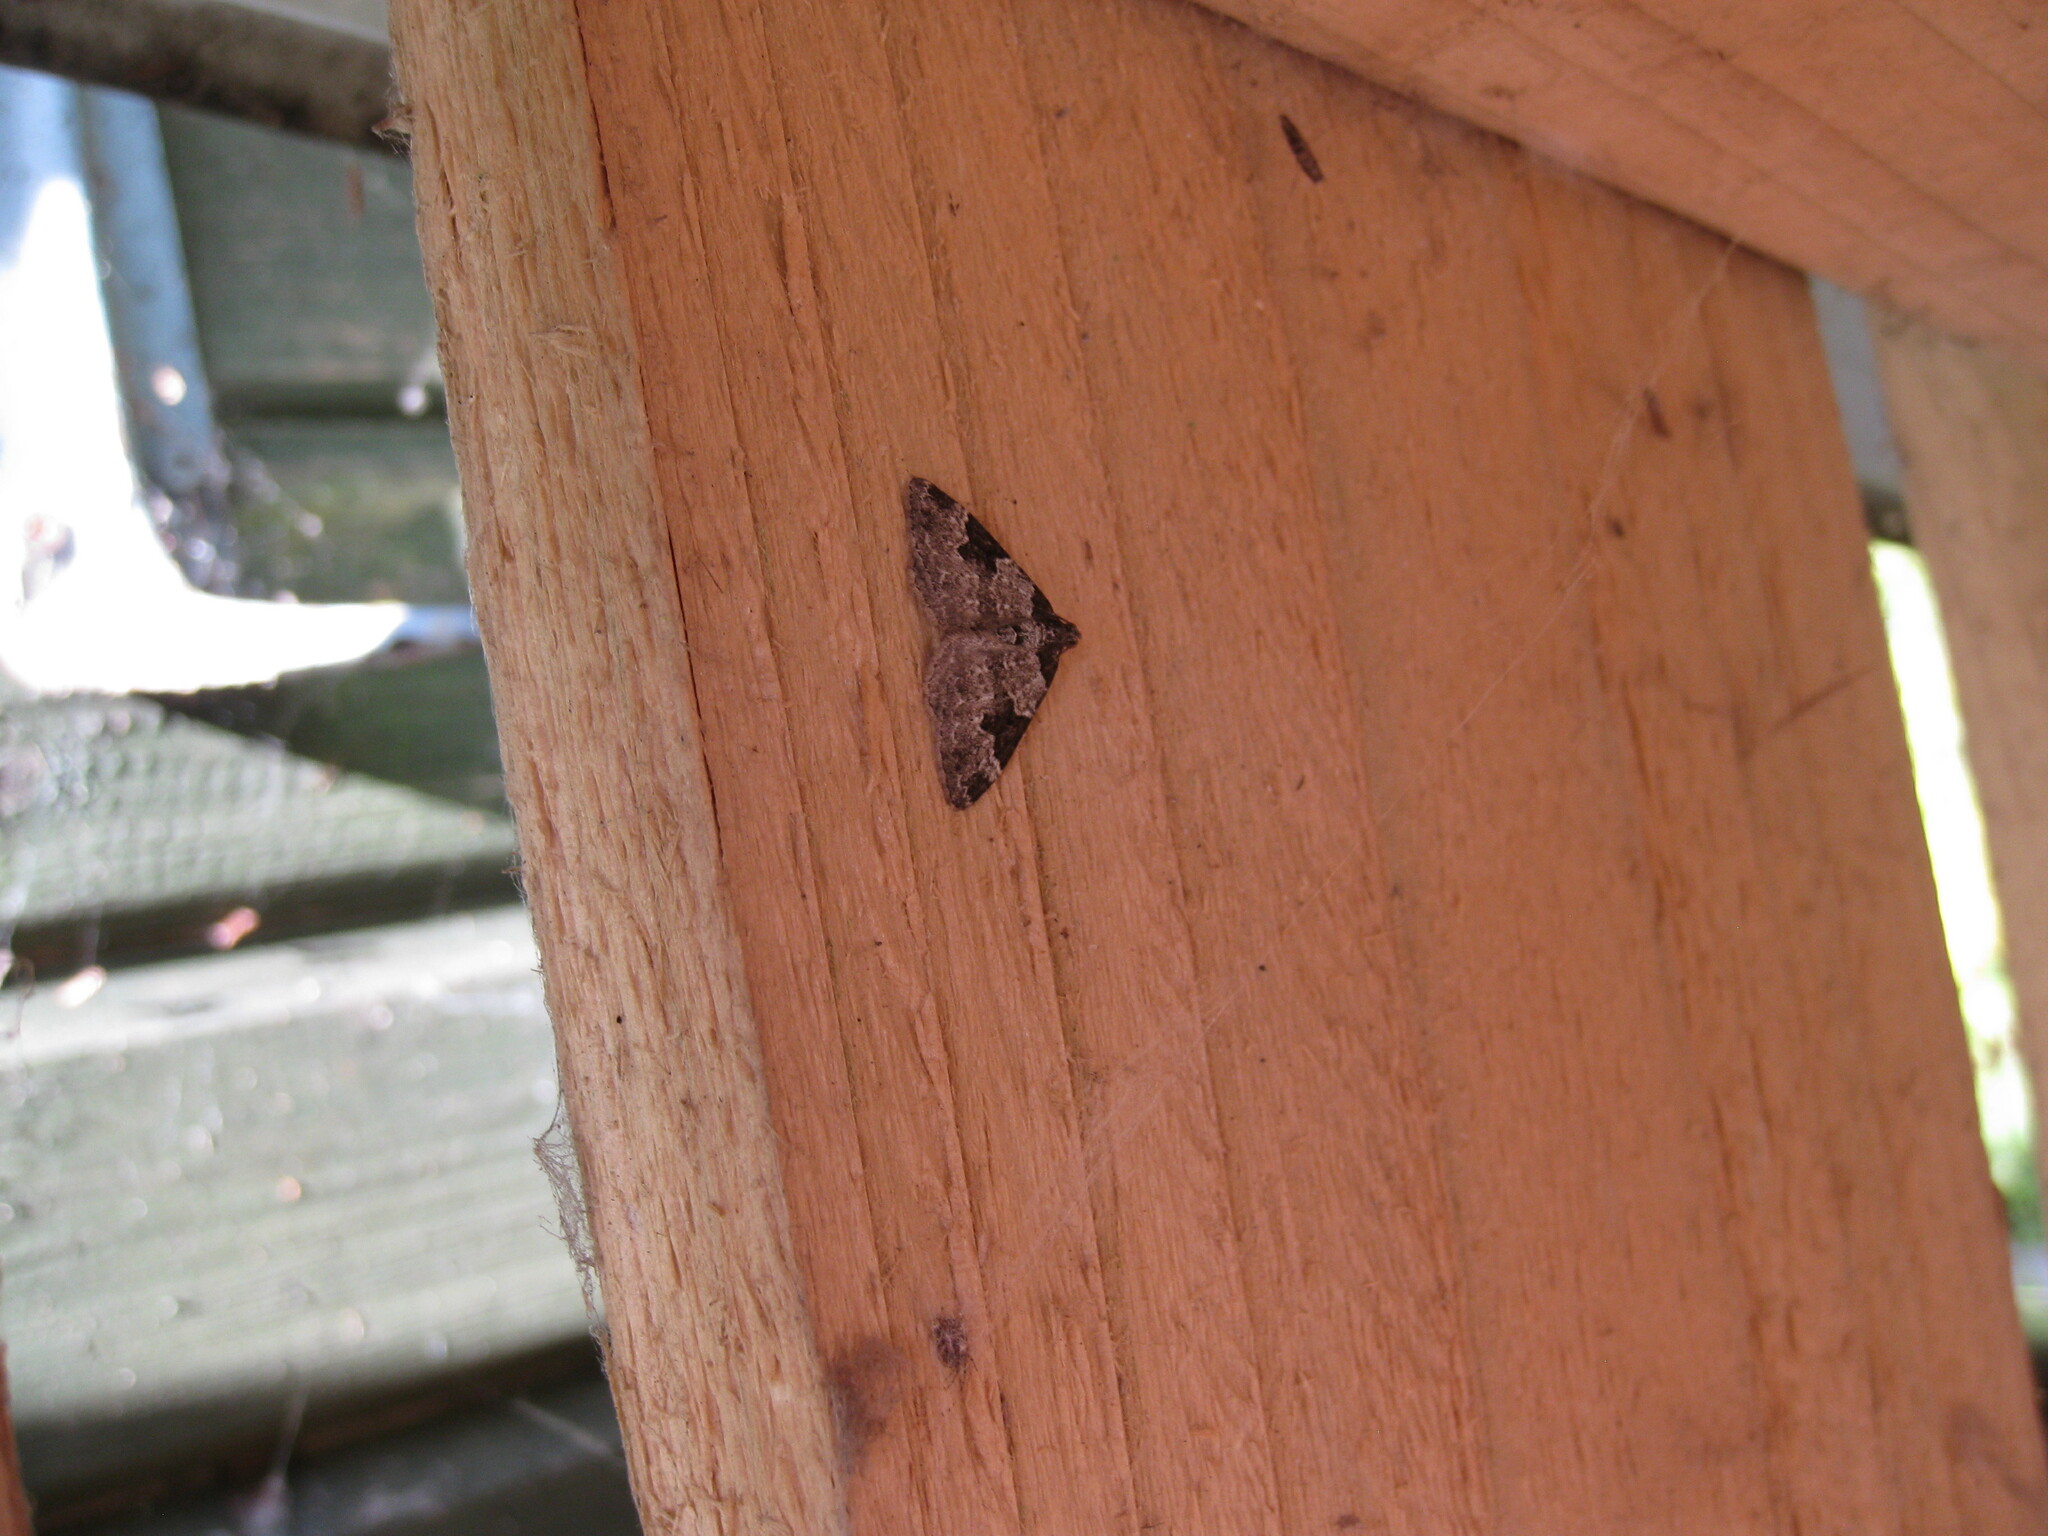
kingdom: Animalia
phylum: Arthropoda
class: Insecta
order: Lepidoptera
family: Geometridae
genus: Xanthorhoe
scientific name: Xanthorhoe fluctuata
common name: Garden carpet
